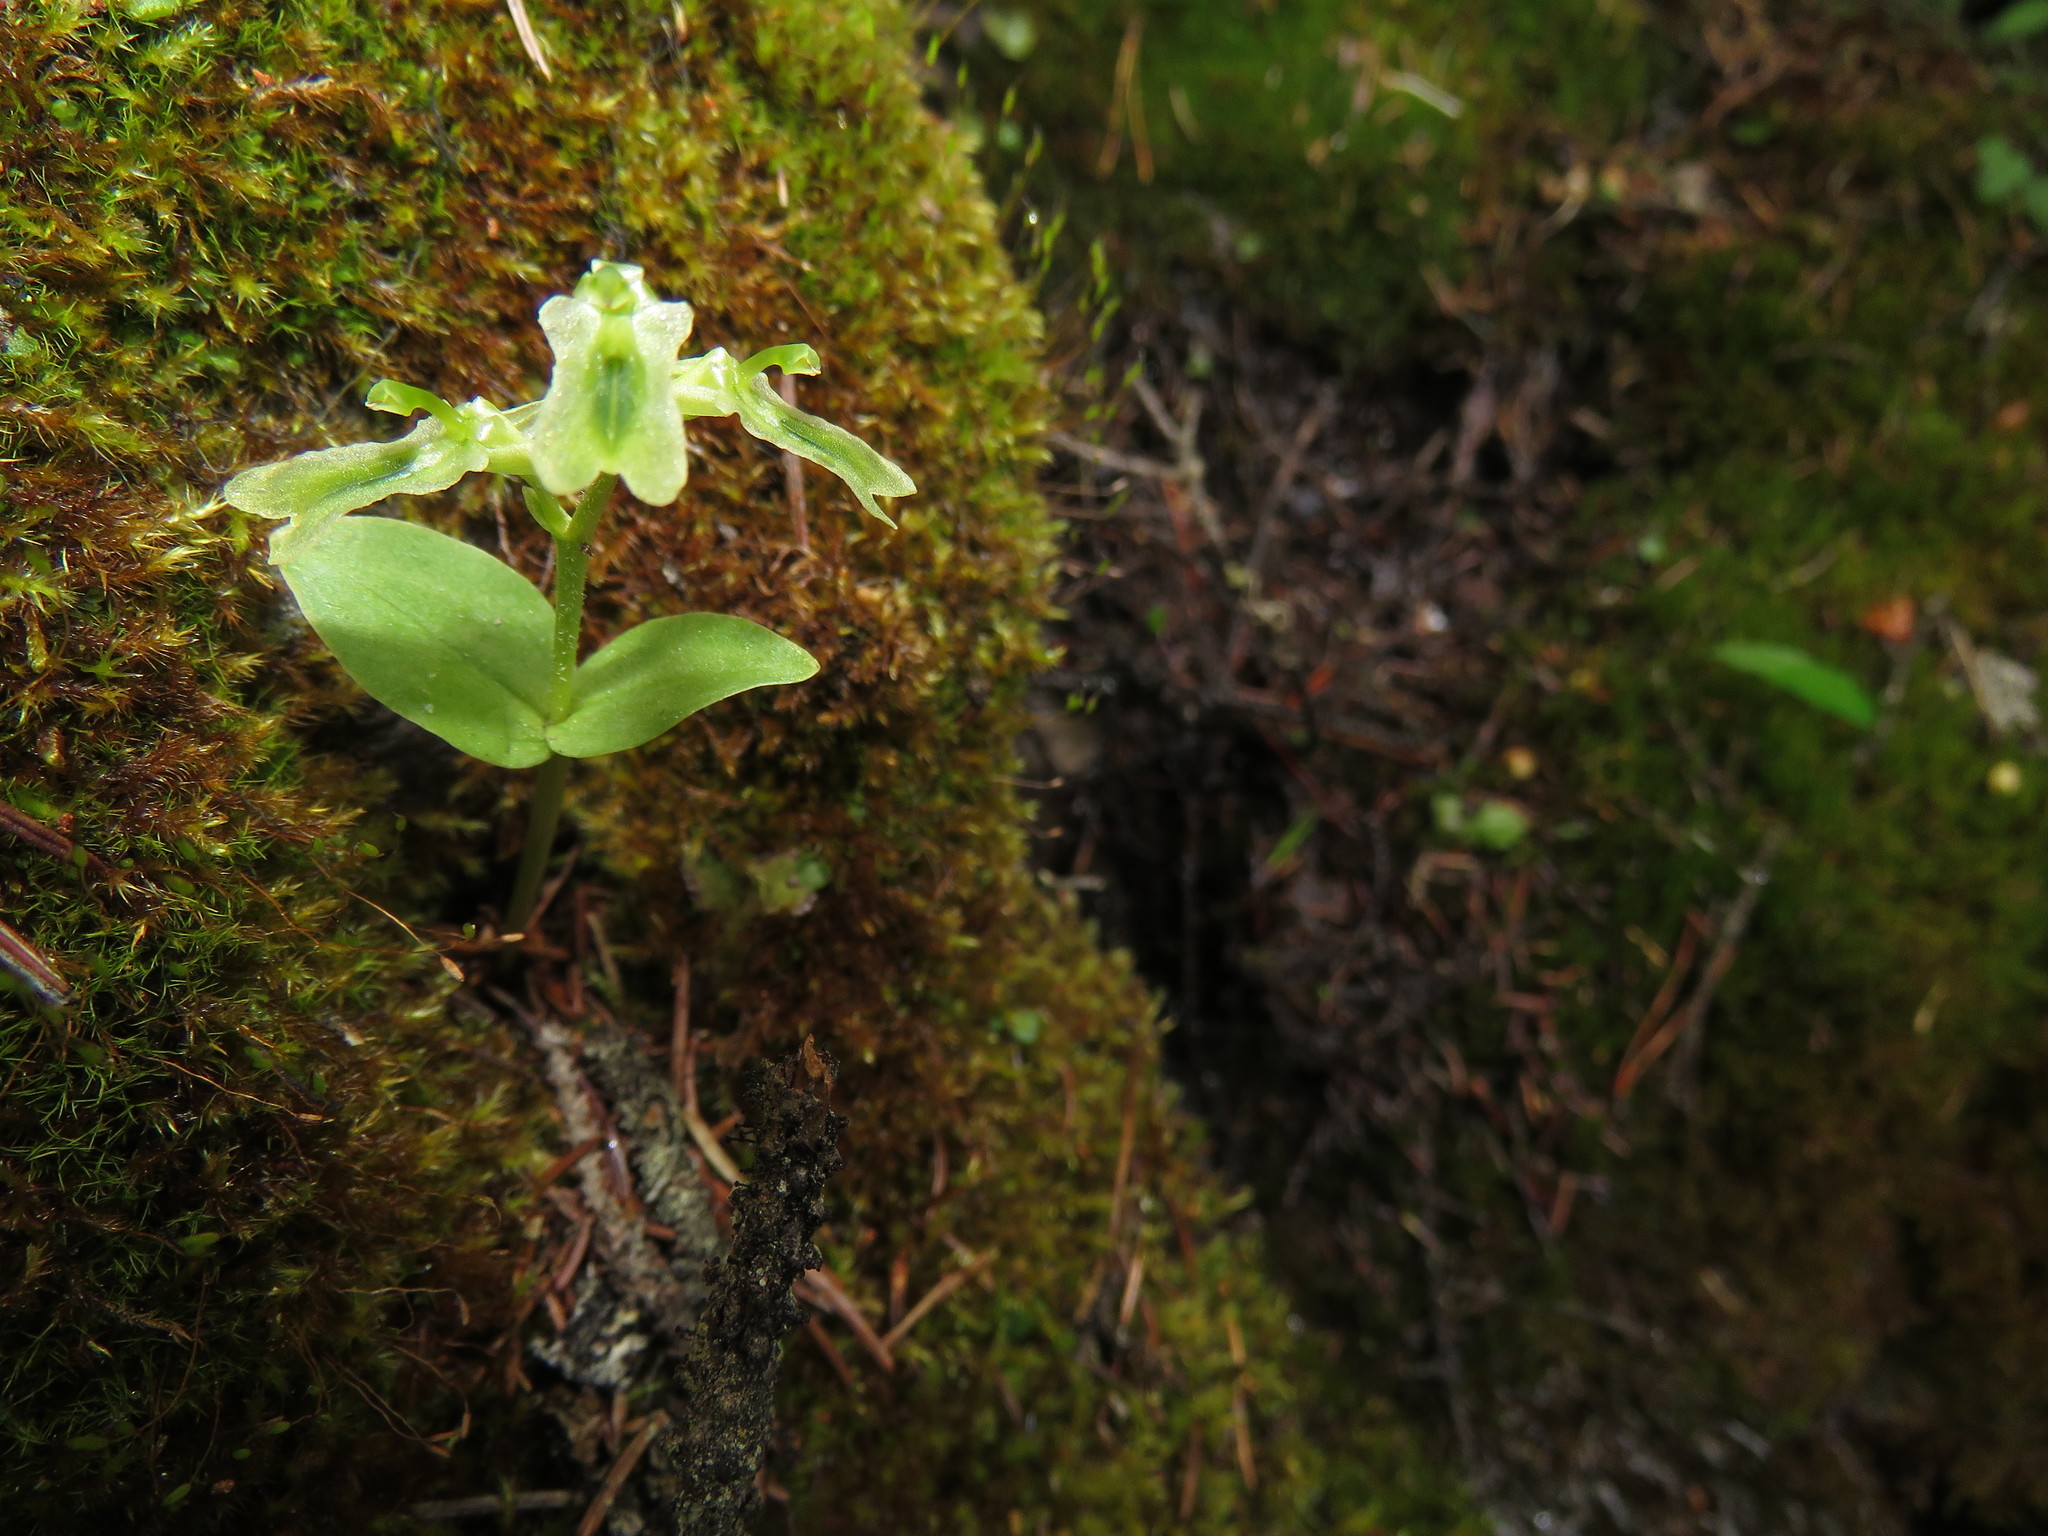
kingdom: Plantae
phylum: Tracheophyta
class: Liliopsida
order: Asparagales
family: Orchidaceae
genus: Neottia
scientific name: Neottia borealis
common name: Northern twayblade
